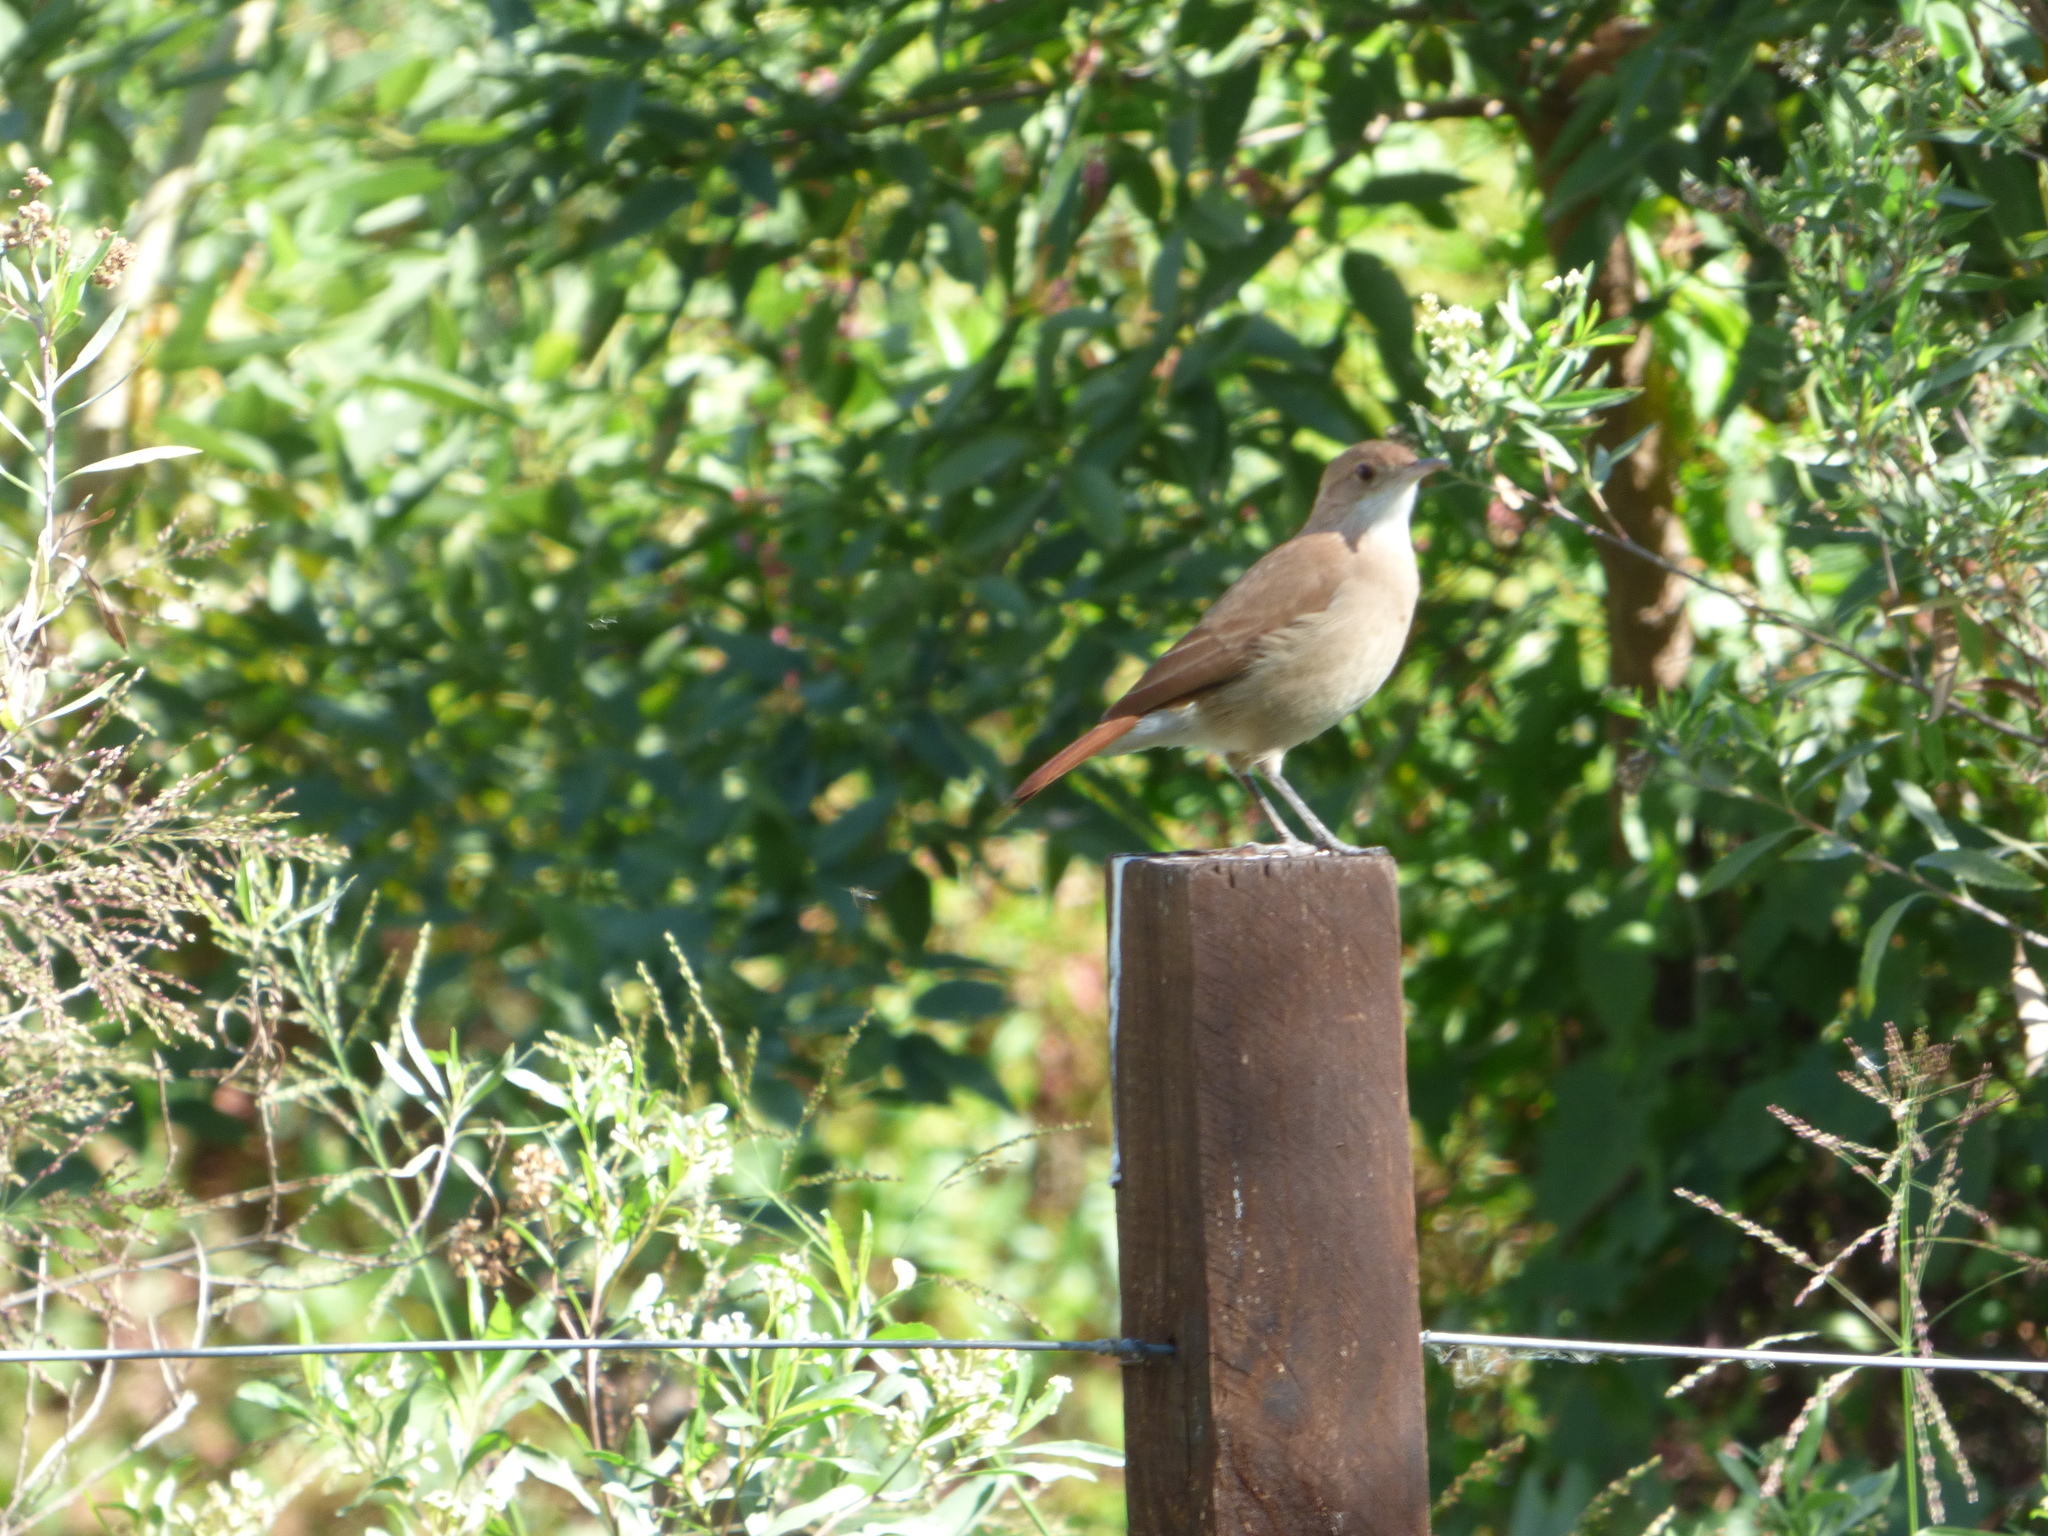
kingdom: Animalia
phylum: Chordata
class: Aves
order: Passeriformes
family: Furnariidae
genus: Furnarius
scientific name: Furnarius rufus
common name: Rufous hornero
